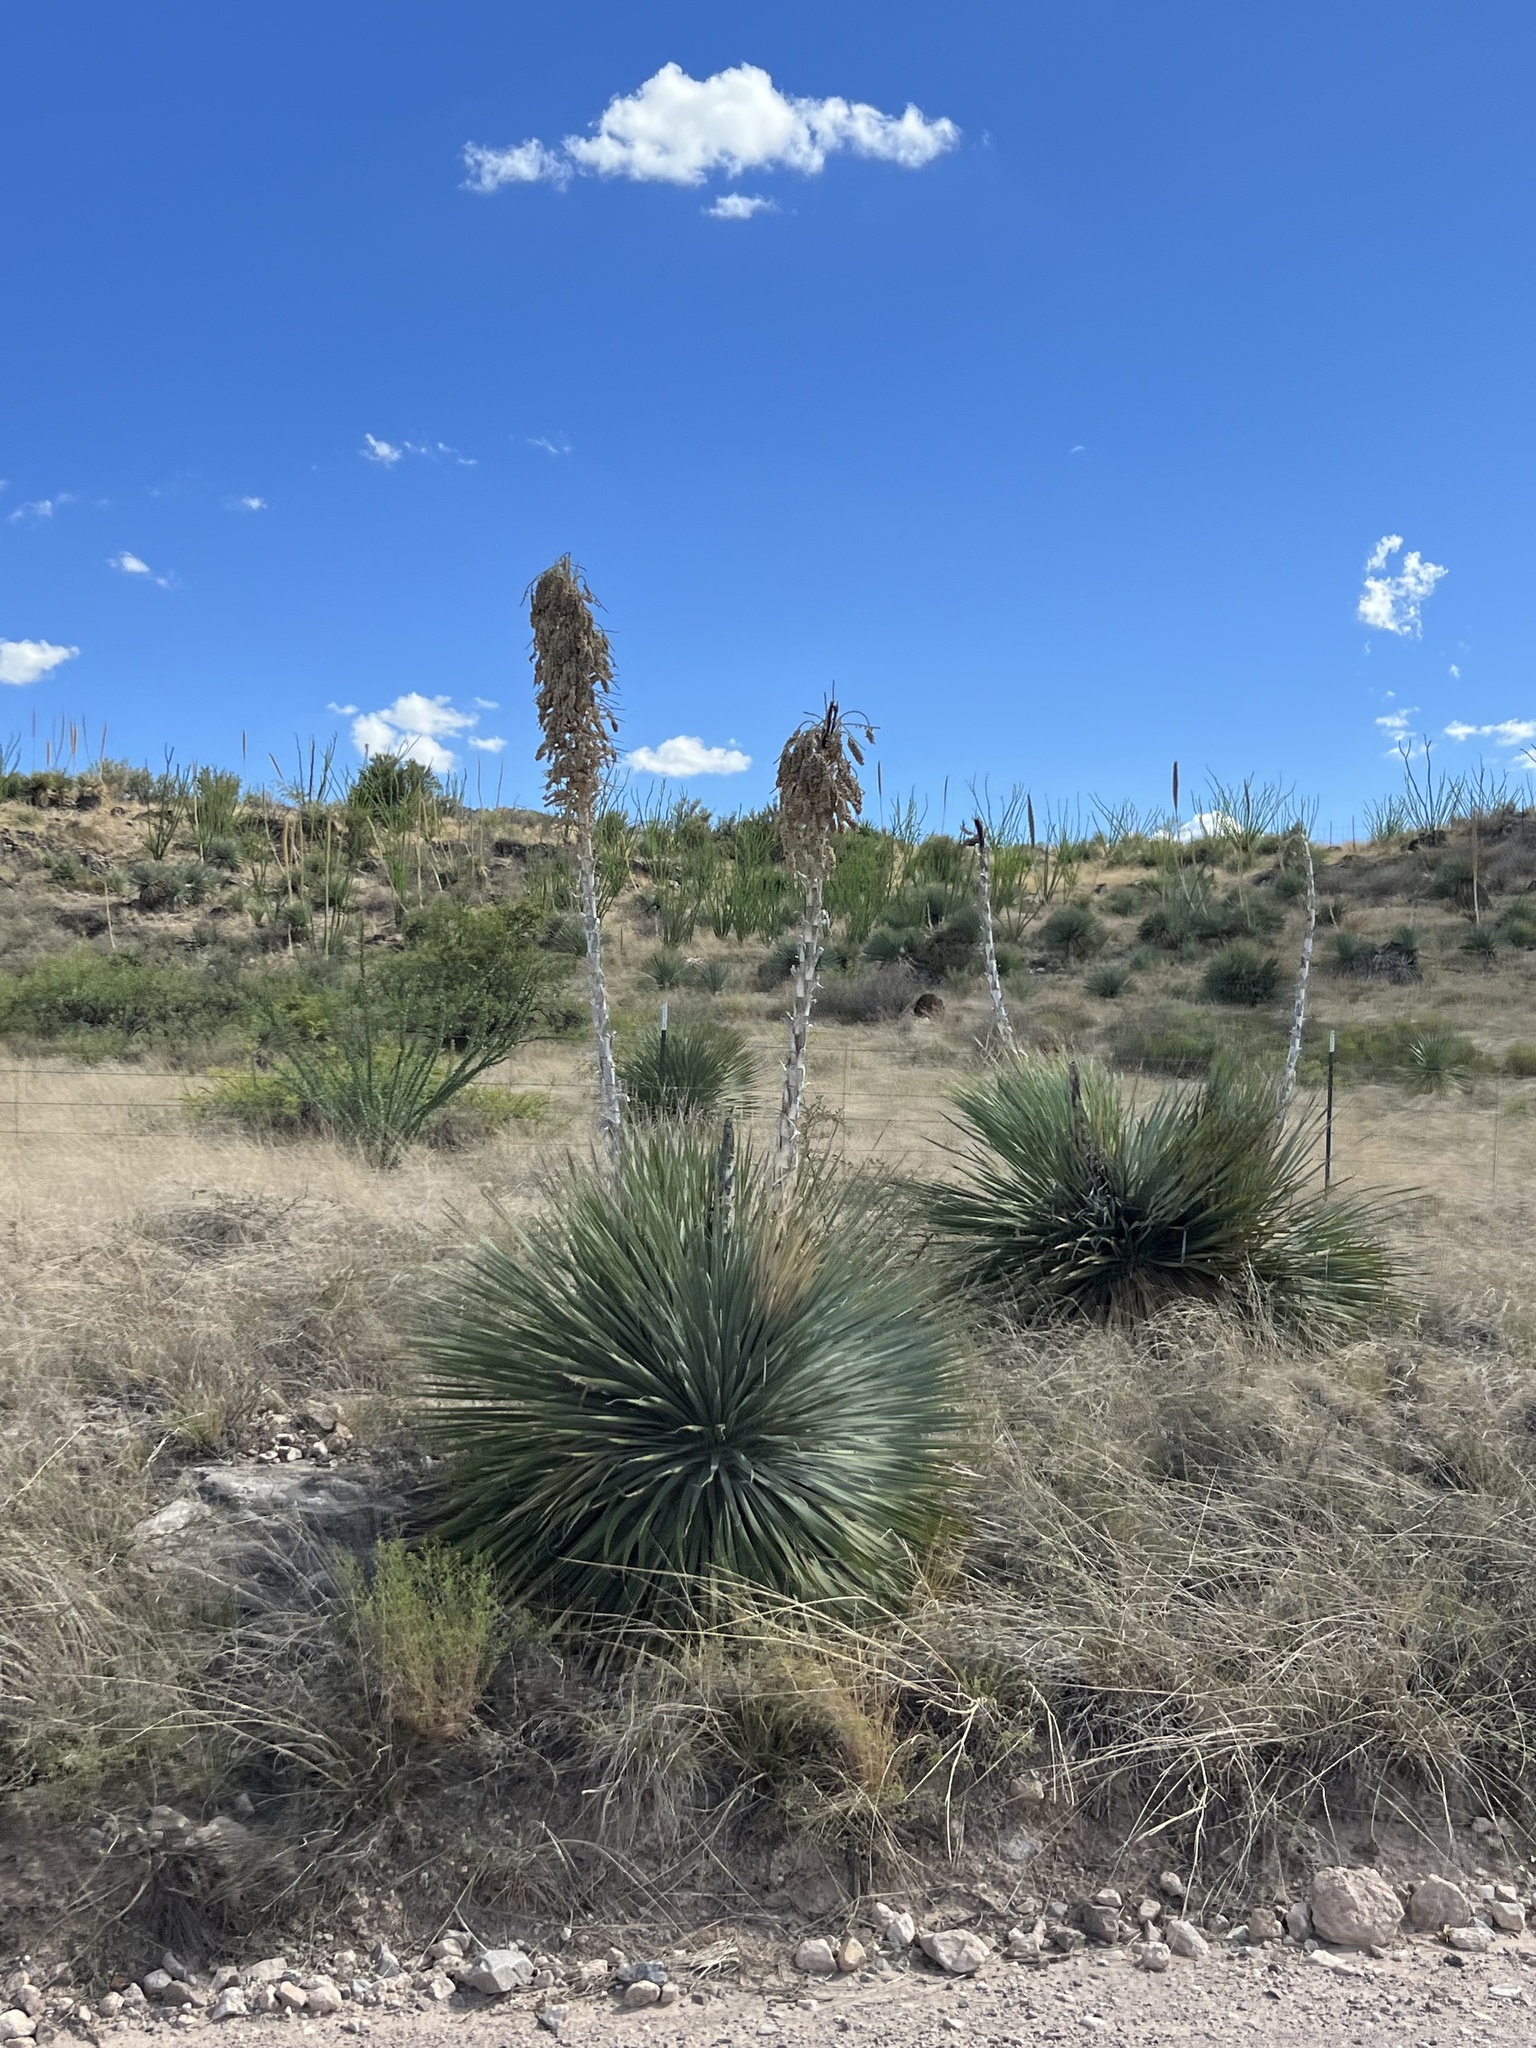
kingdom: Plantae
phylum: Tracheophyta
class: Liliopsida
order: Asparagales
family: Asparagaceae
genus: Dasylirion
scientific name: Dasylirion wheeleri
